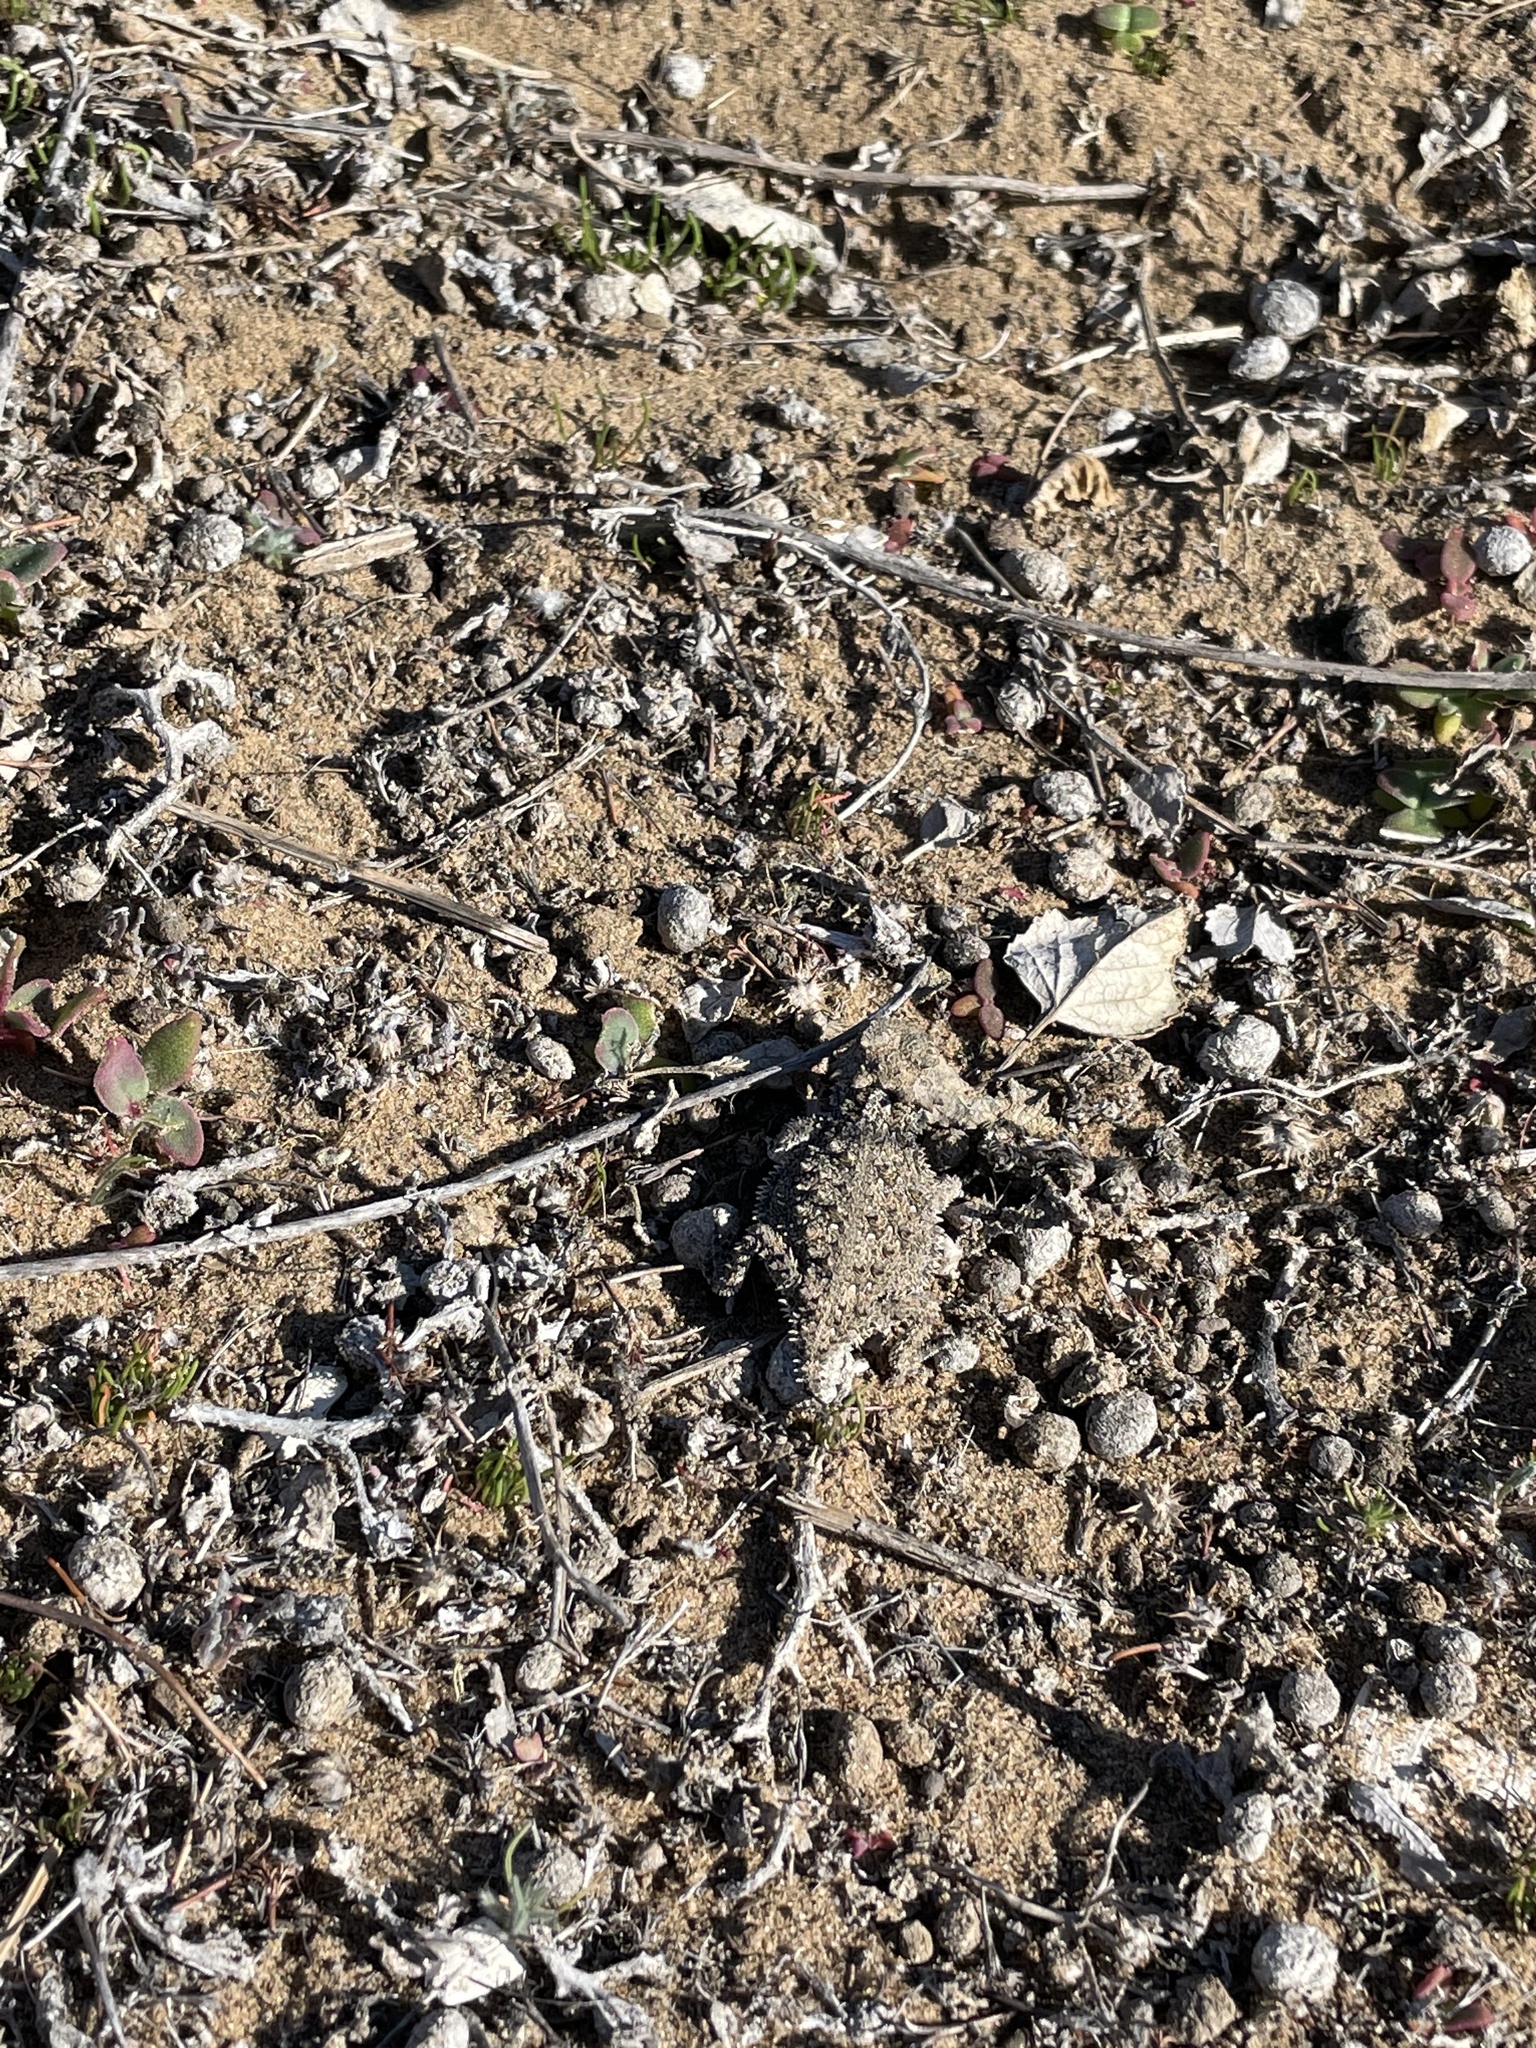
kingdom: Animalia
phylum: Chordata
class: Squamata
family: Phrynosomatidae
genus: Phrynosoma
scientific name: Phrynosoma cerroense
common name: Cedros island horned lizard
